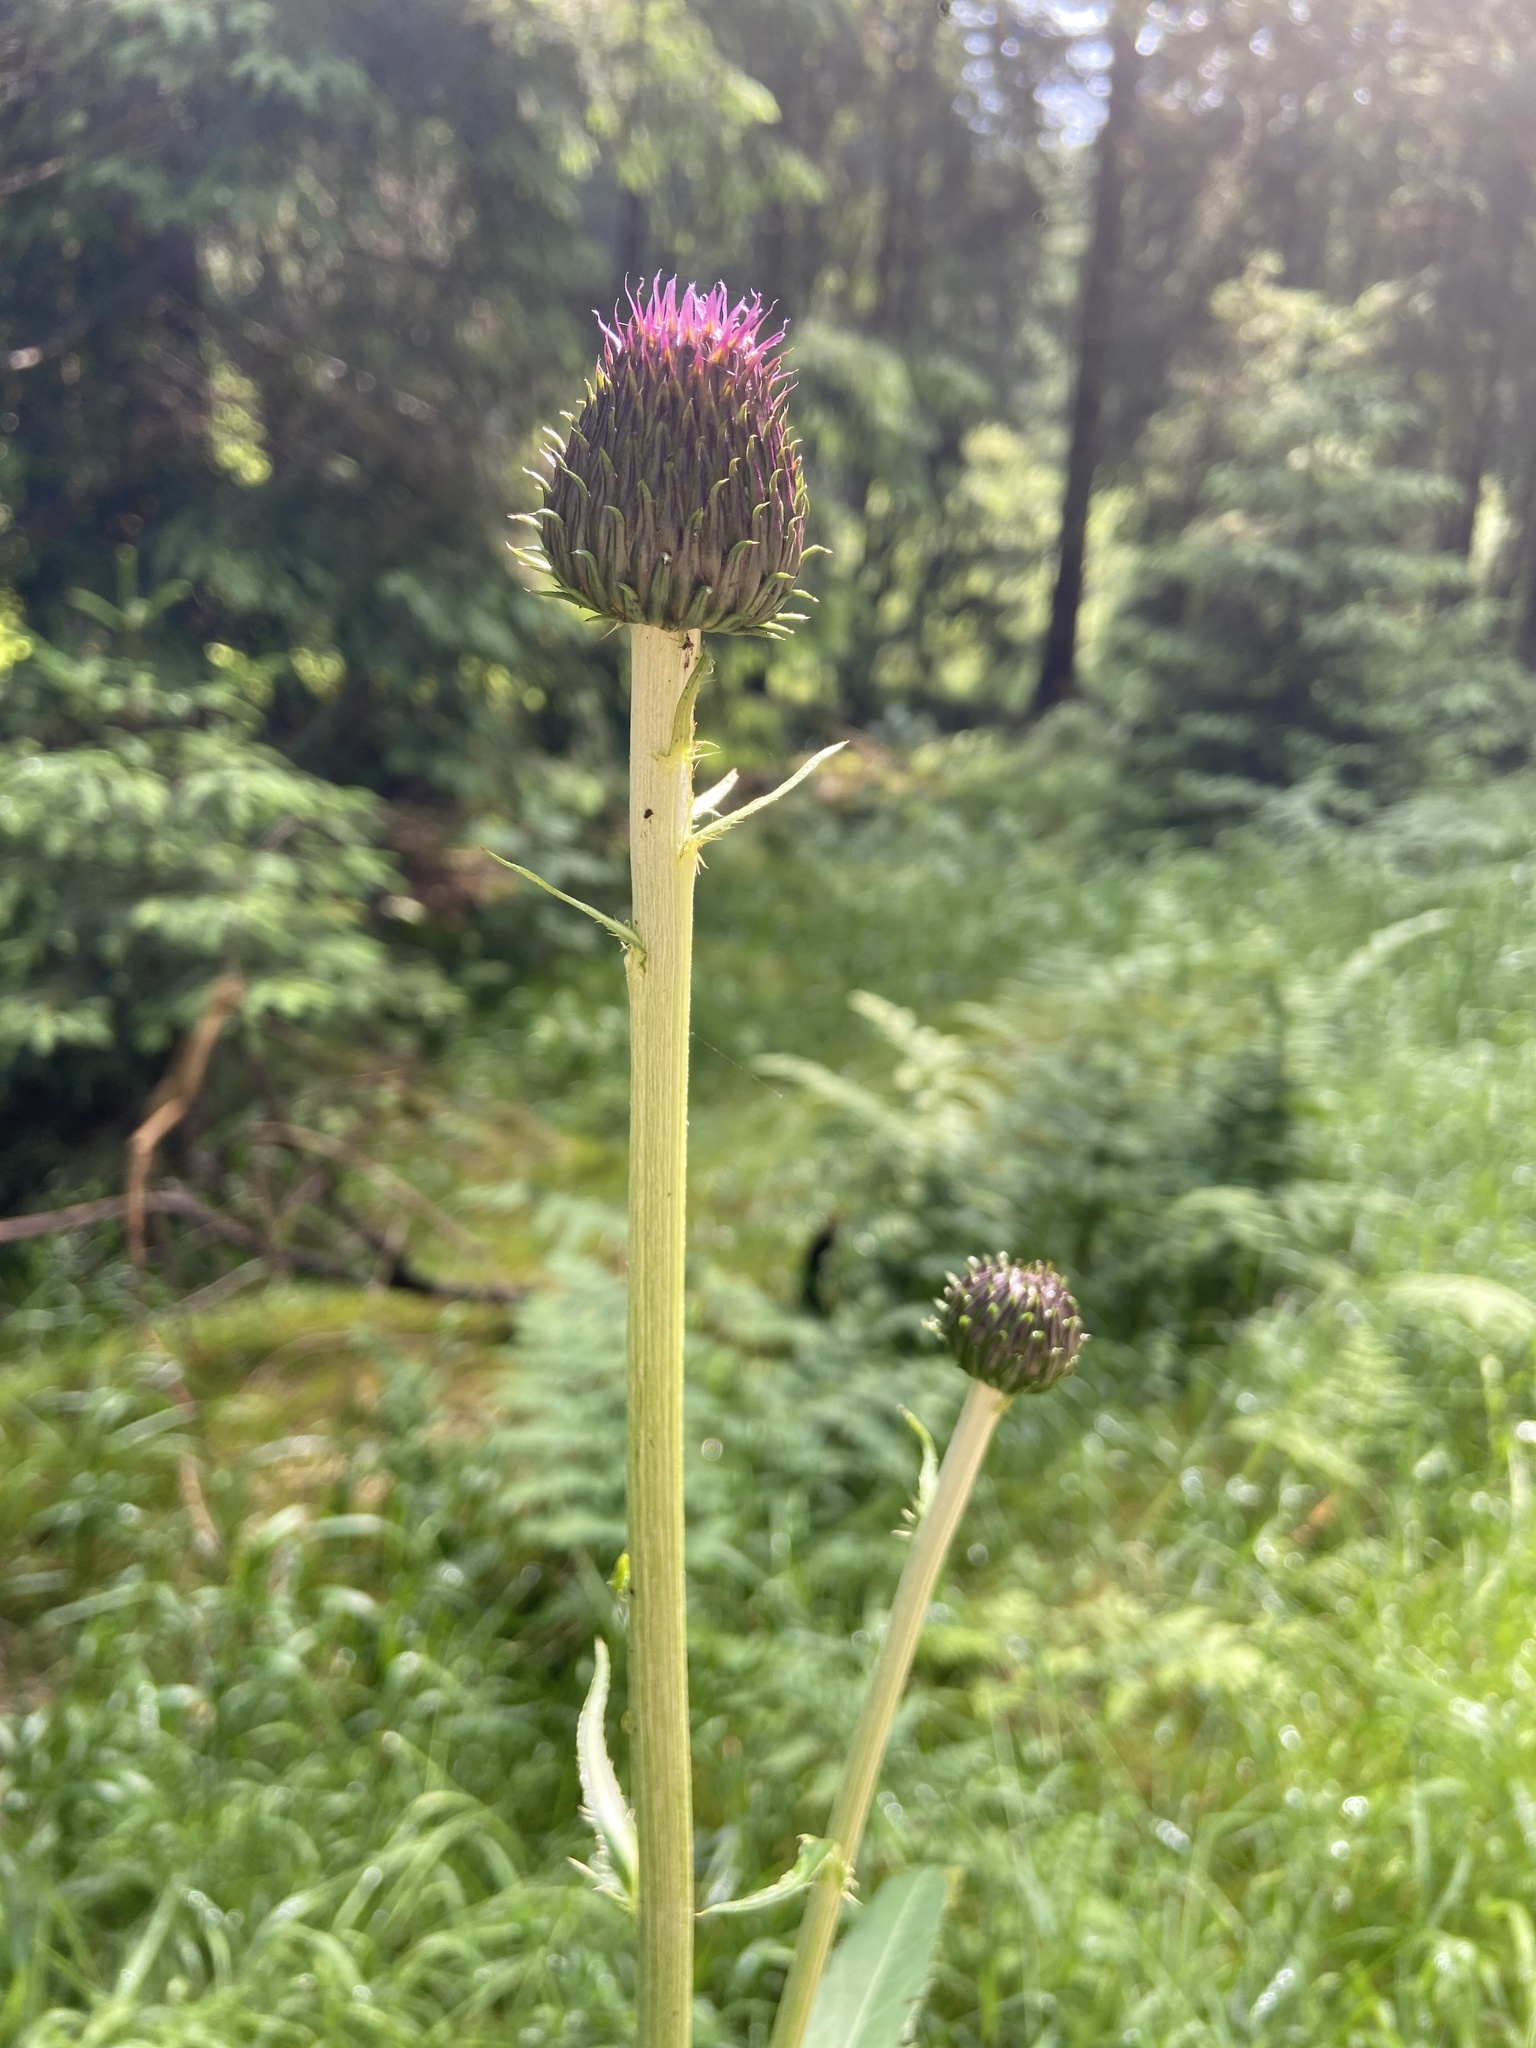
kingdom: Plantae
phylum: Tracheophyta
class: Magnoliopsida
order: Asterales
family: Asteraceae
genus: Cirsium
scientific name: Cirsium heterophyllum
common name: Melancholy thistle
